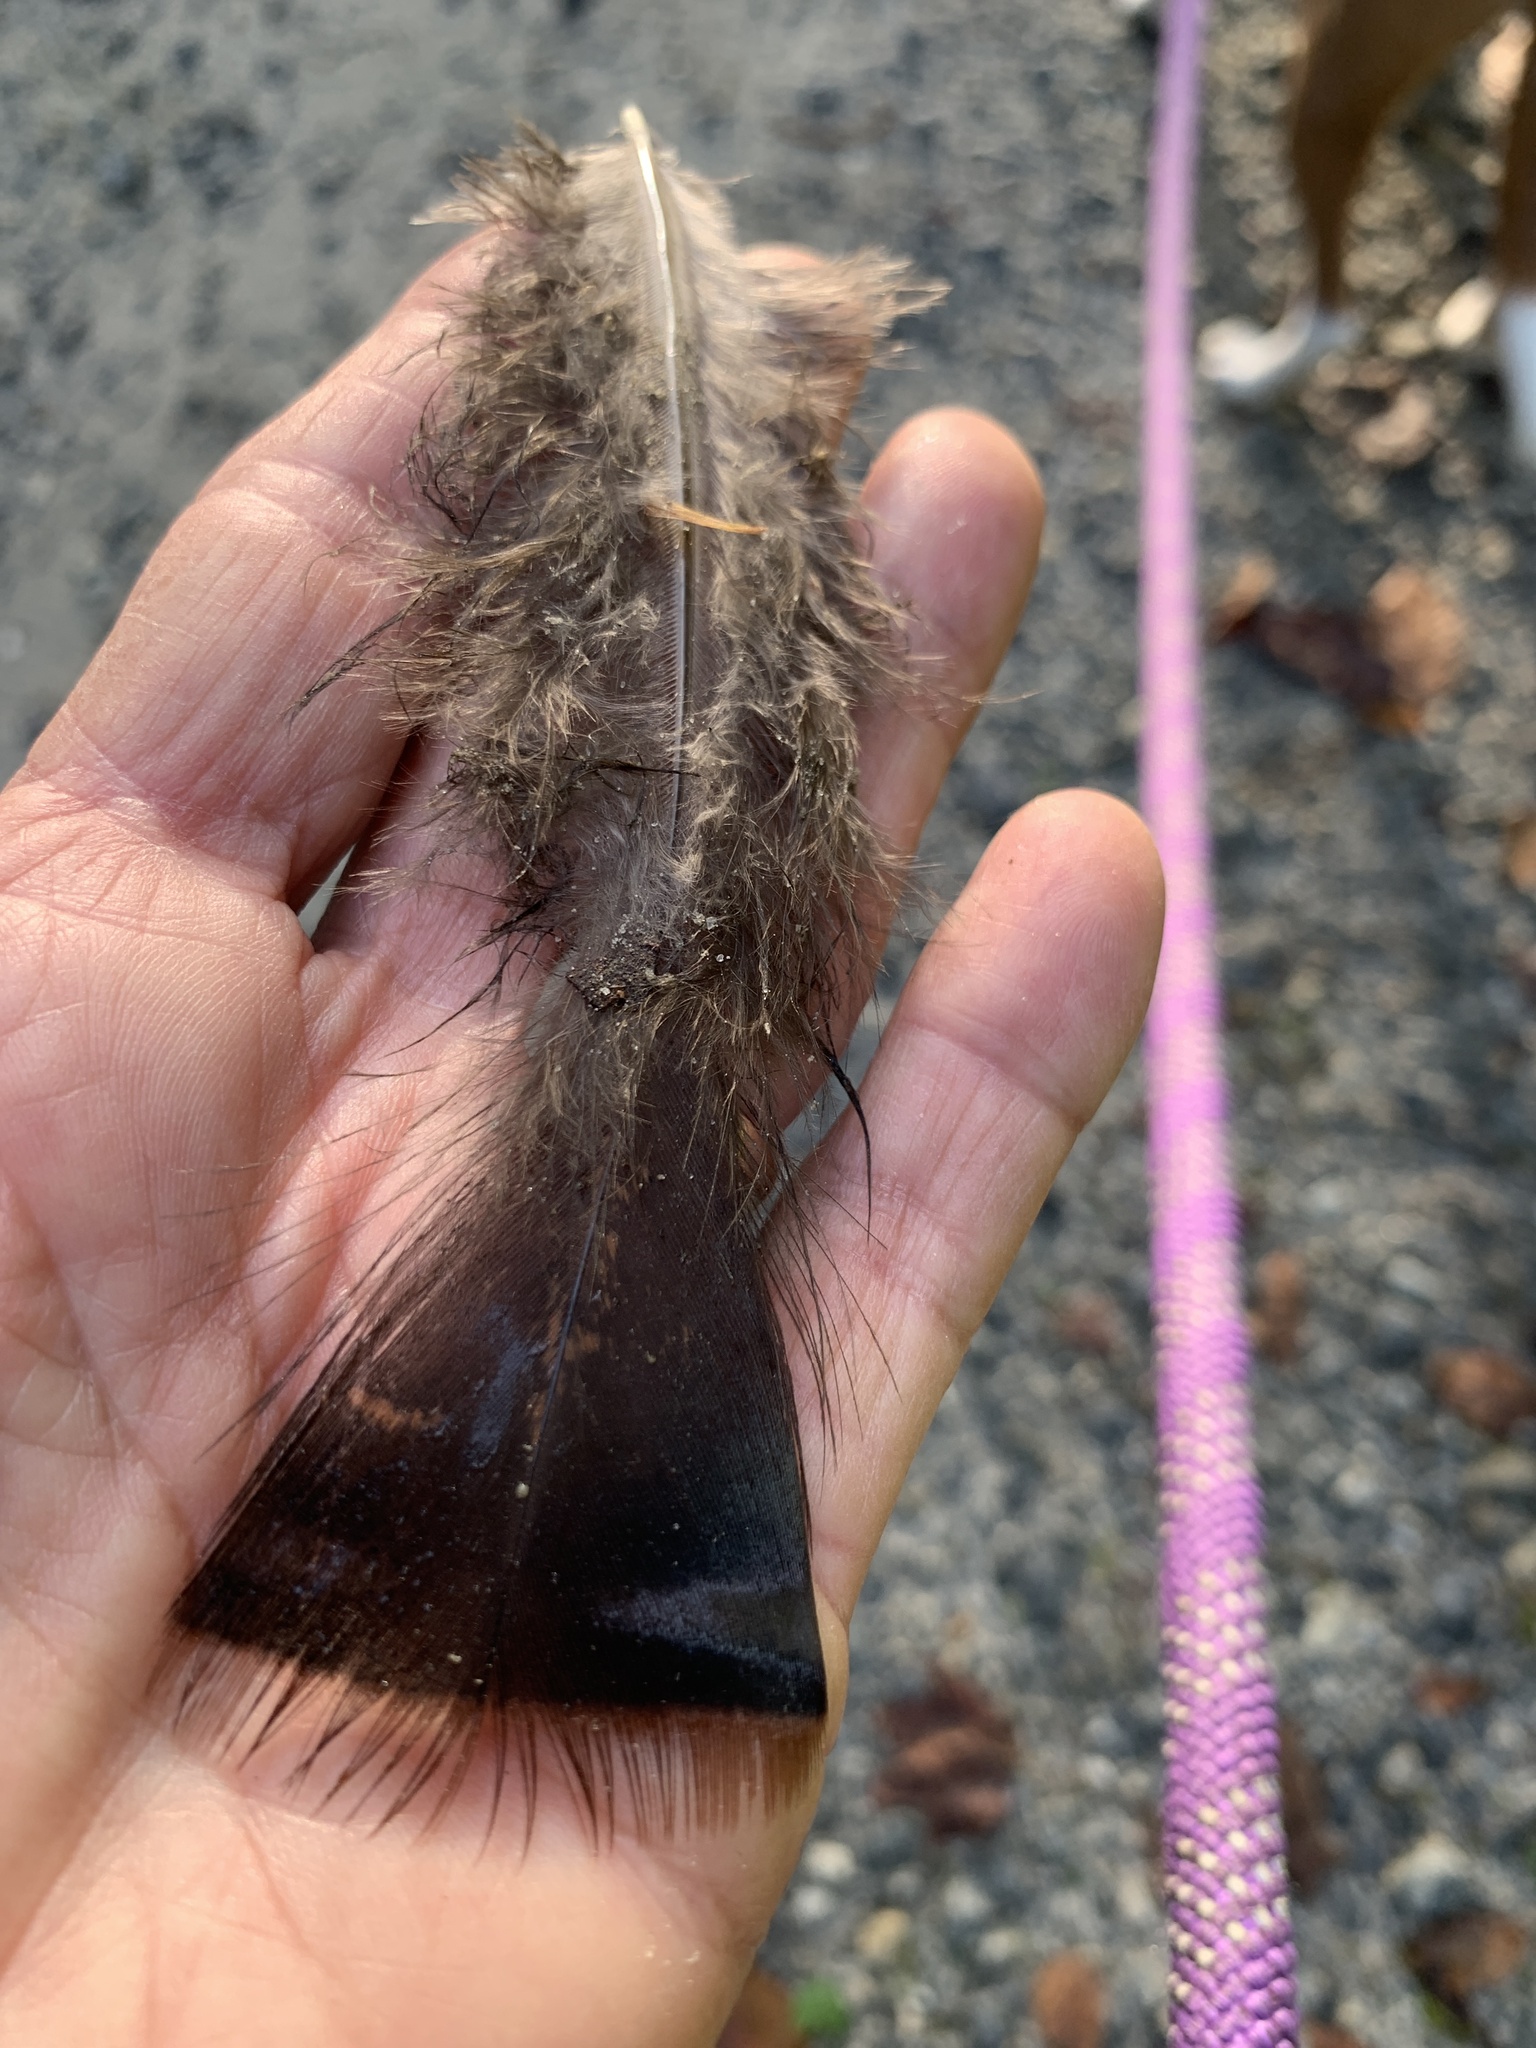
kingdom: Animalia
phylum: Chordata
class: Aves
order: Galliformes
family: Phasianidae
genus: Meleagris
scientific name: Meleagris gallopavo
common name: Wild turkey
